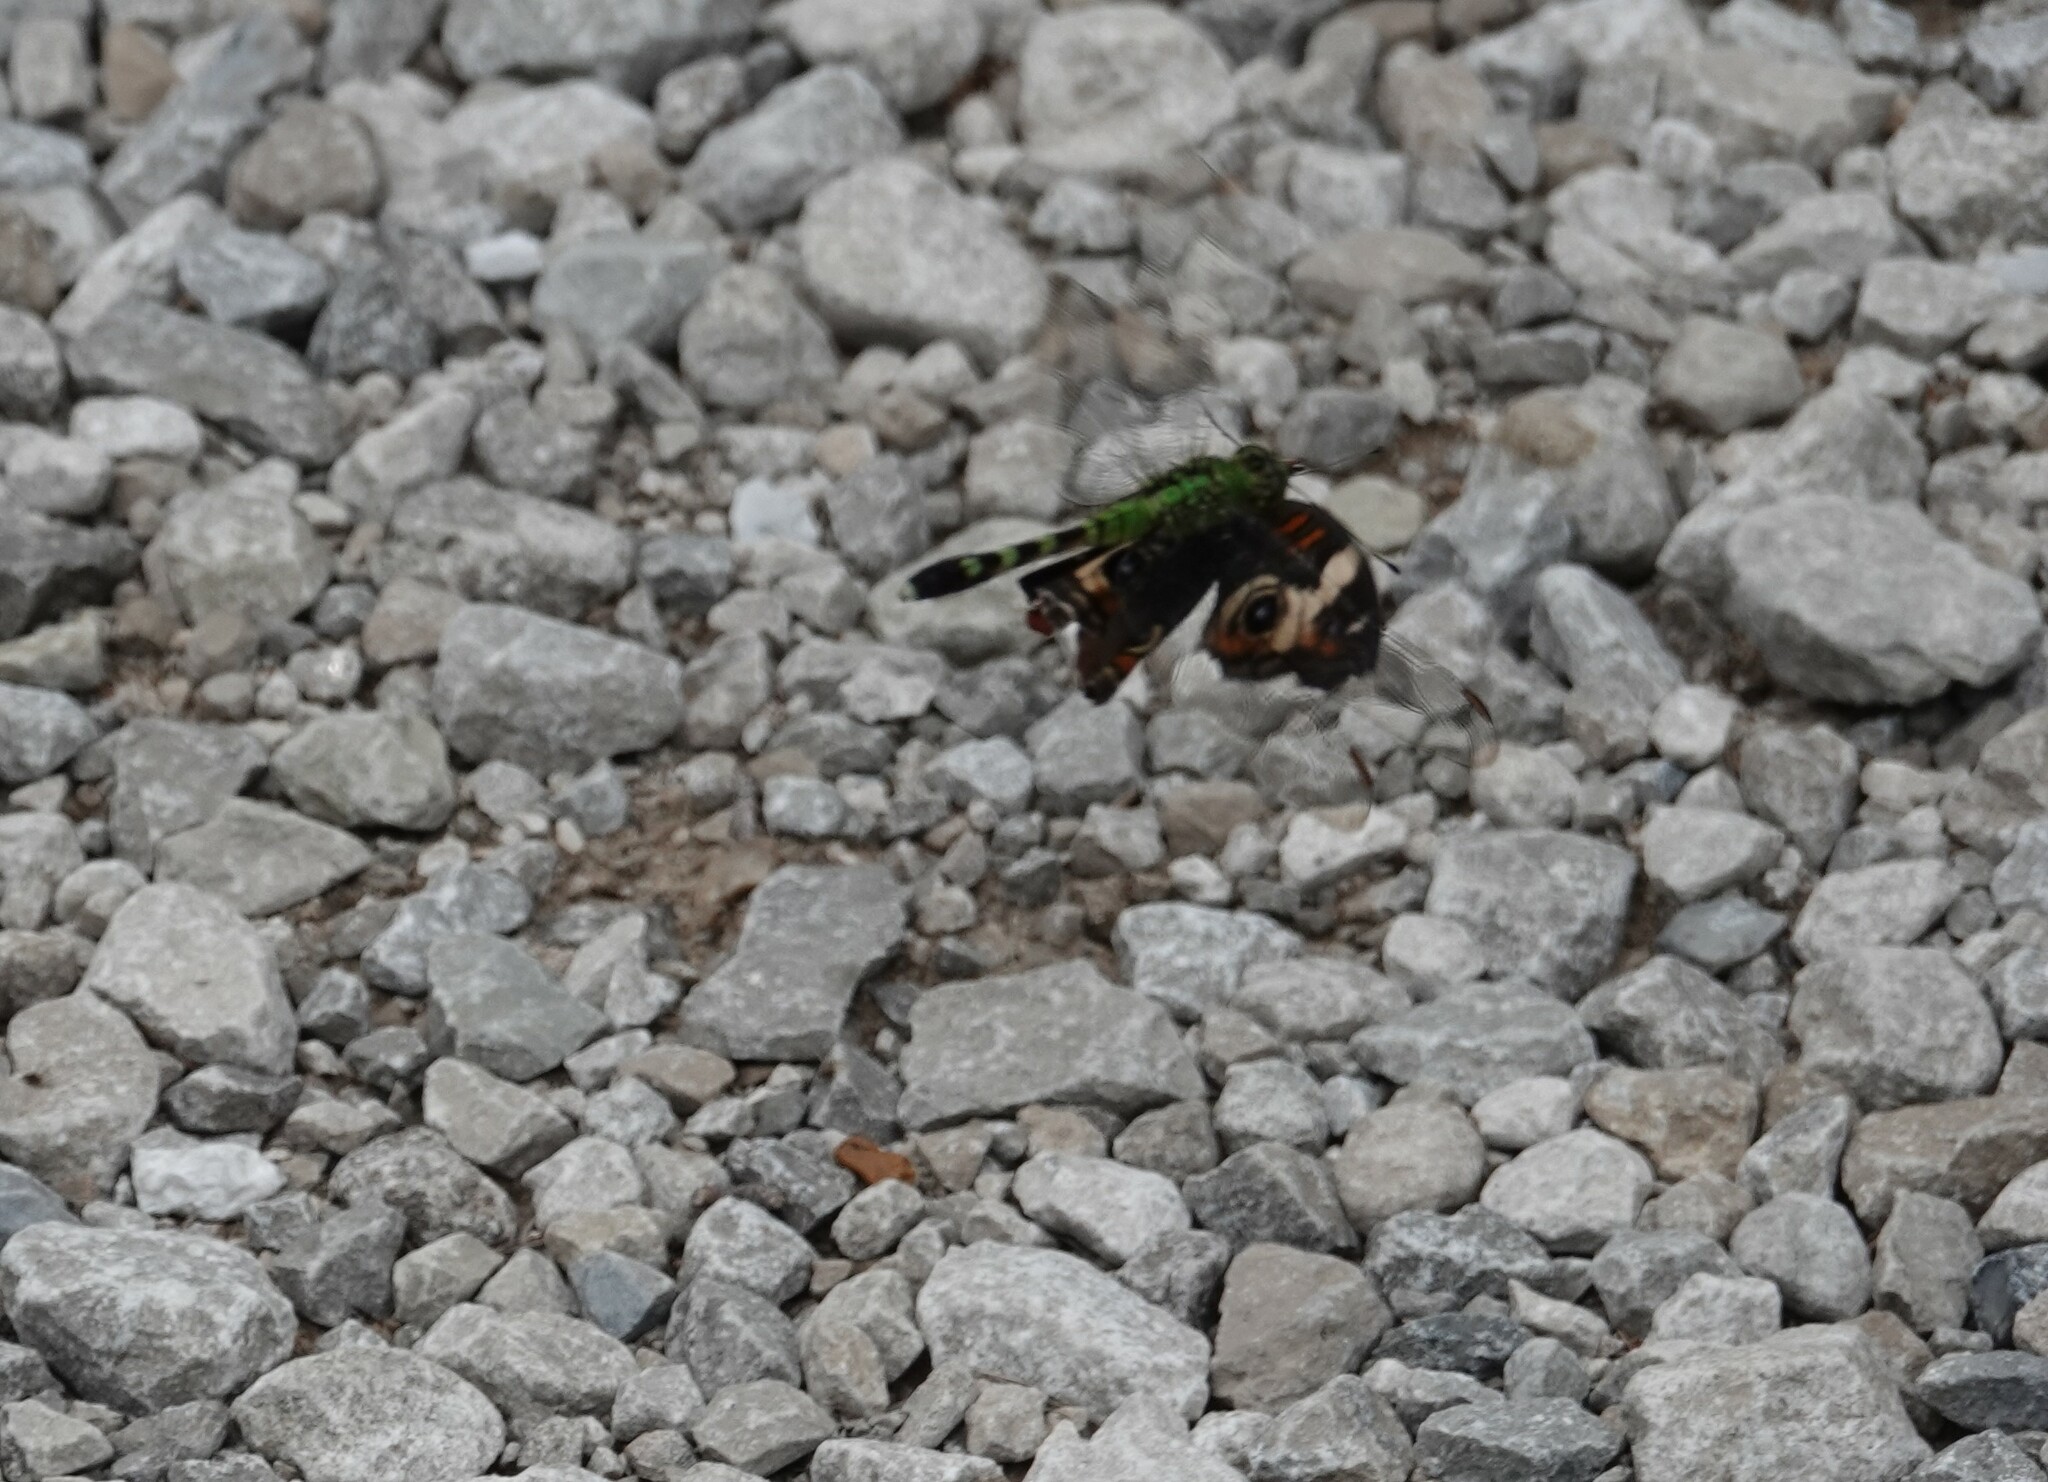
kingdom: Animalia
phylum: Arthropoda
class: Insecta
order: Odonata
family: Libellulidae
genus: Erythemis
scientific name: Erythemis simplicicollis
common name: Eastern pondhawk
